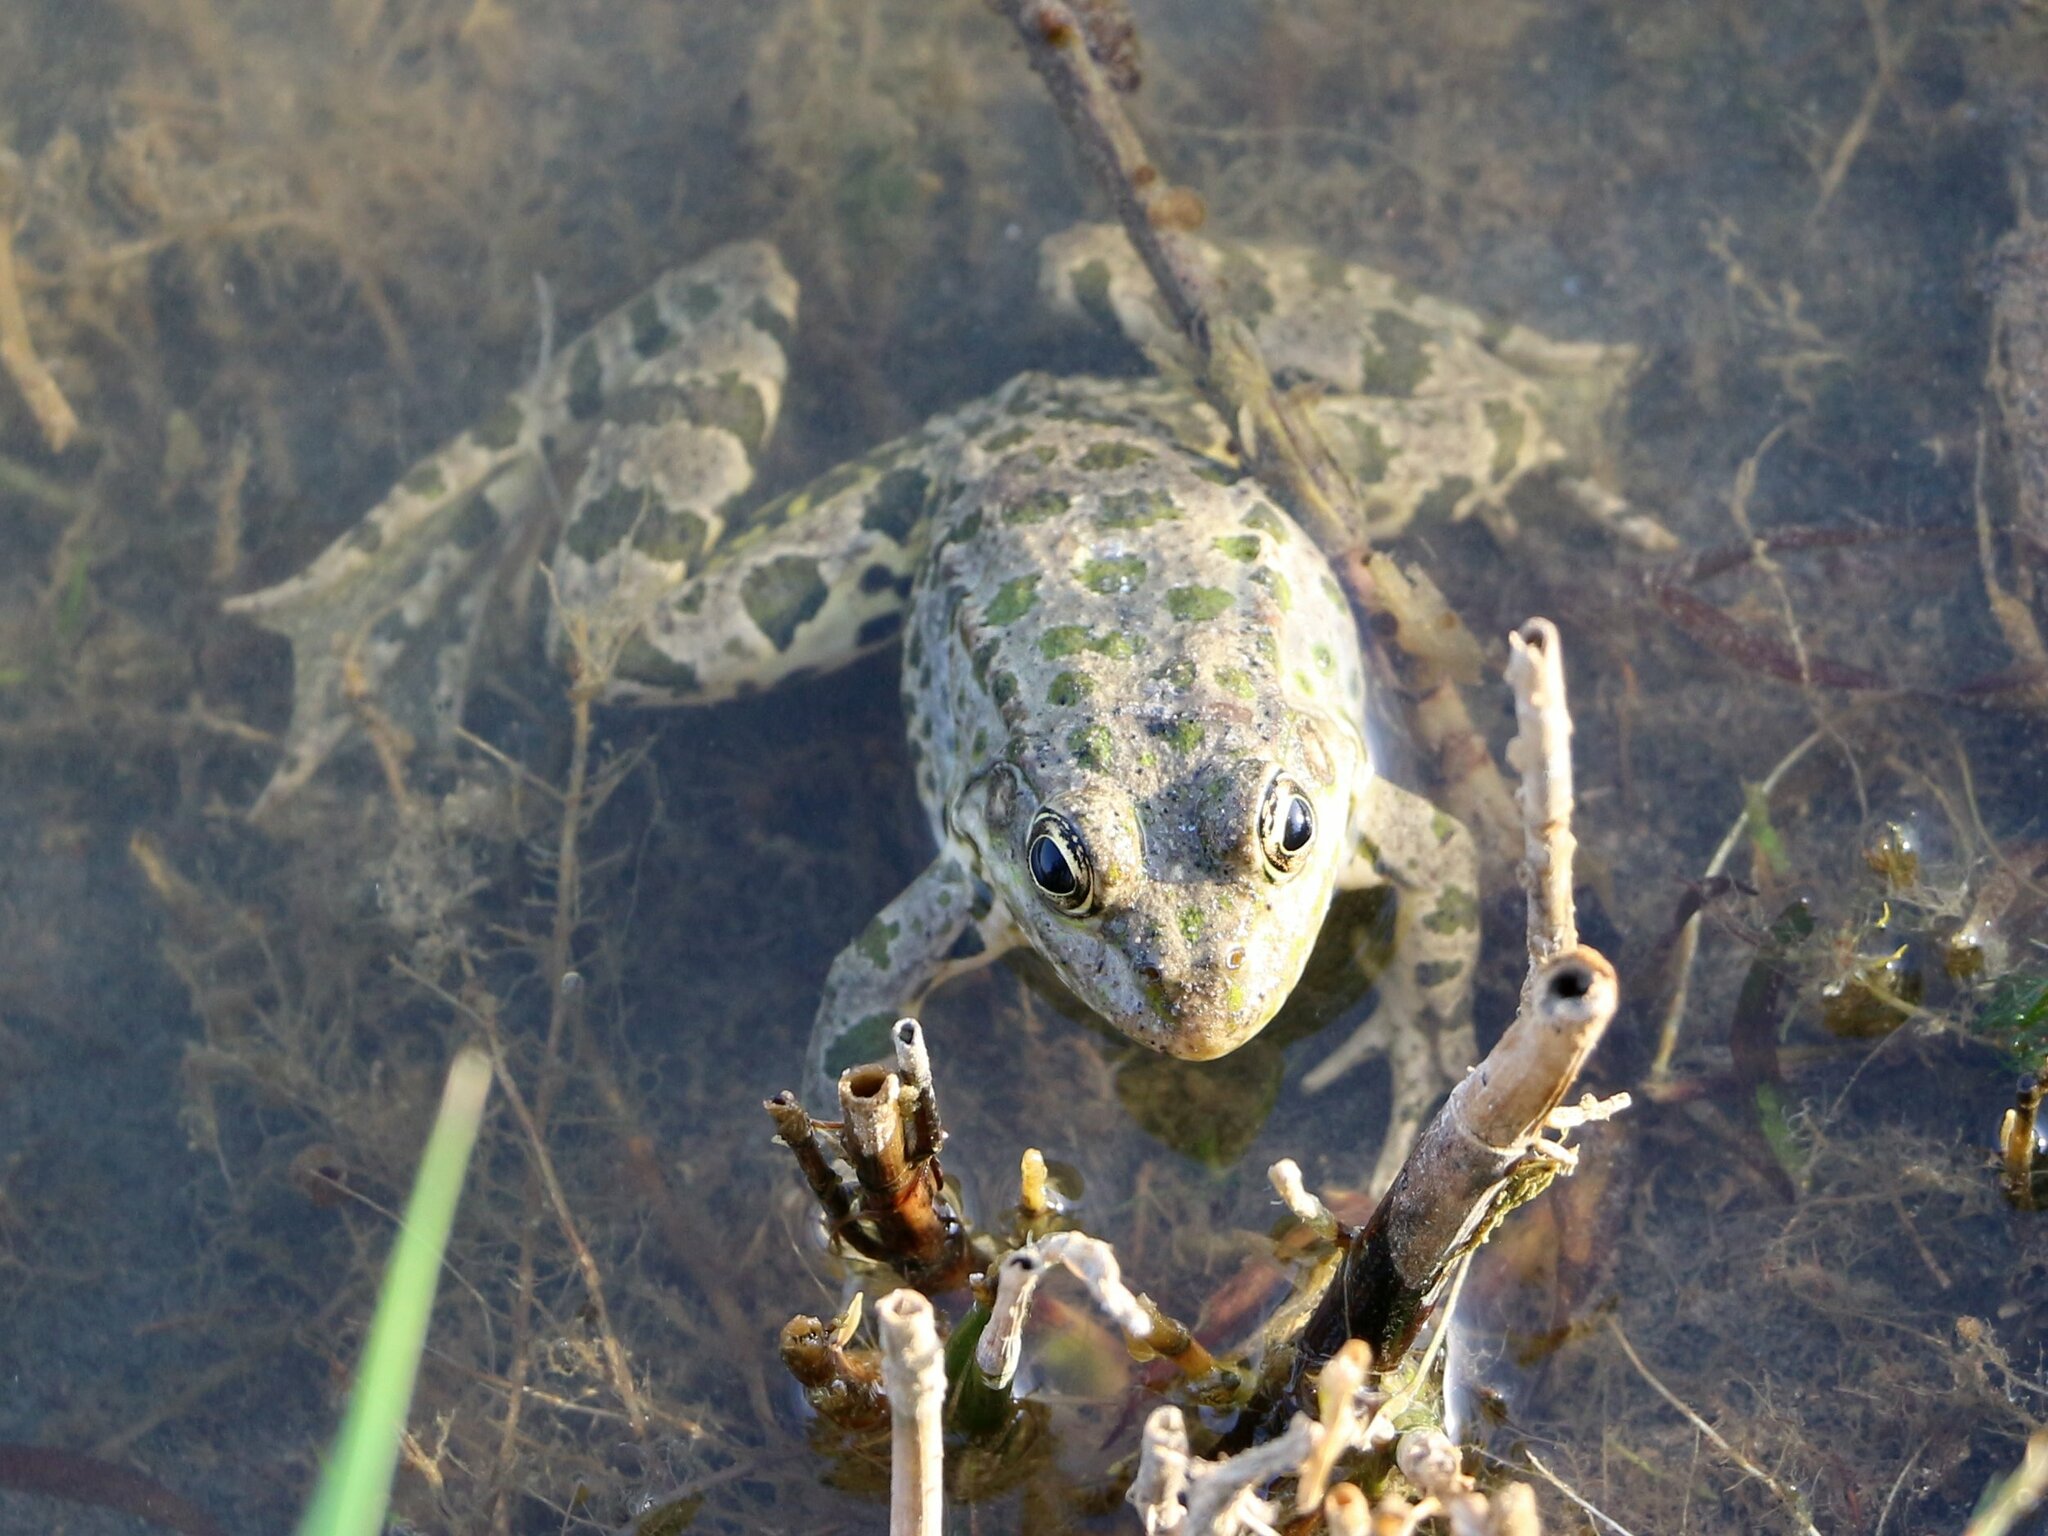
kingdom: Animalia
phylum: Chordata
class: Amphibia
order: Anura
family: Ranidae
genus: Pelophylax
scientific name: Pelophylax ridibundus
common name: Marsh frog
